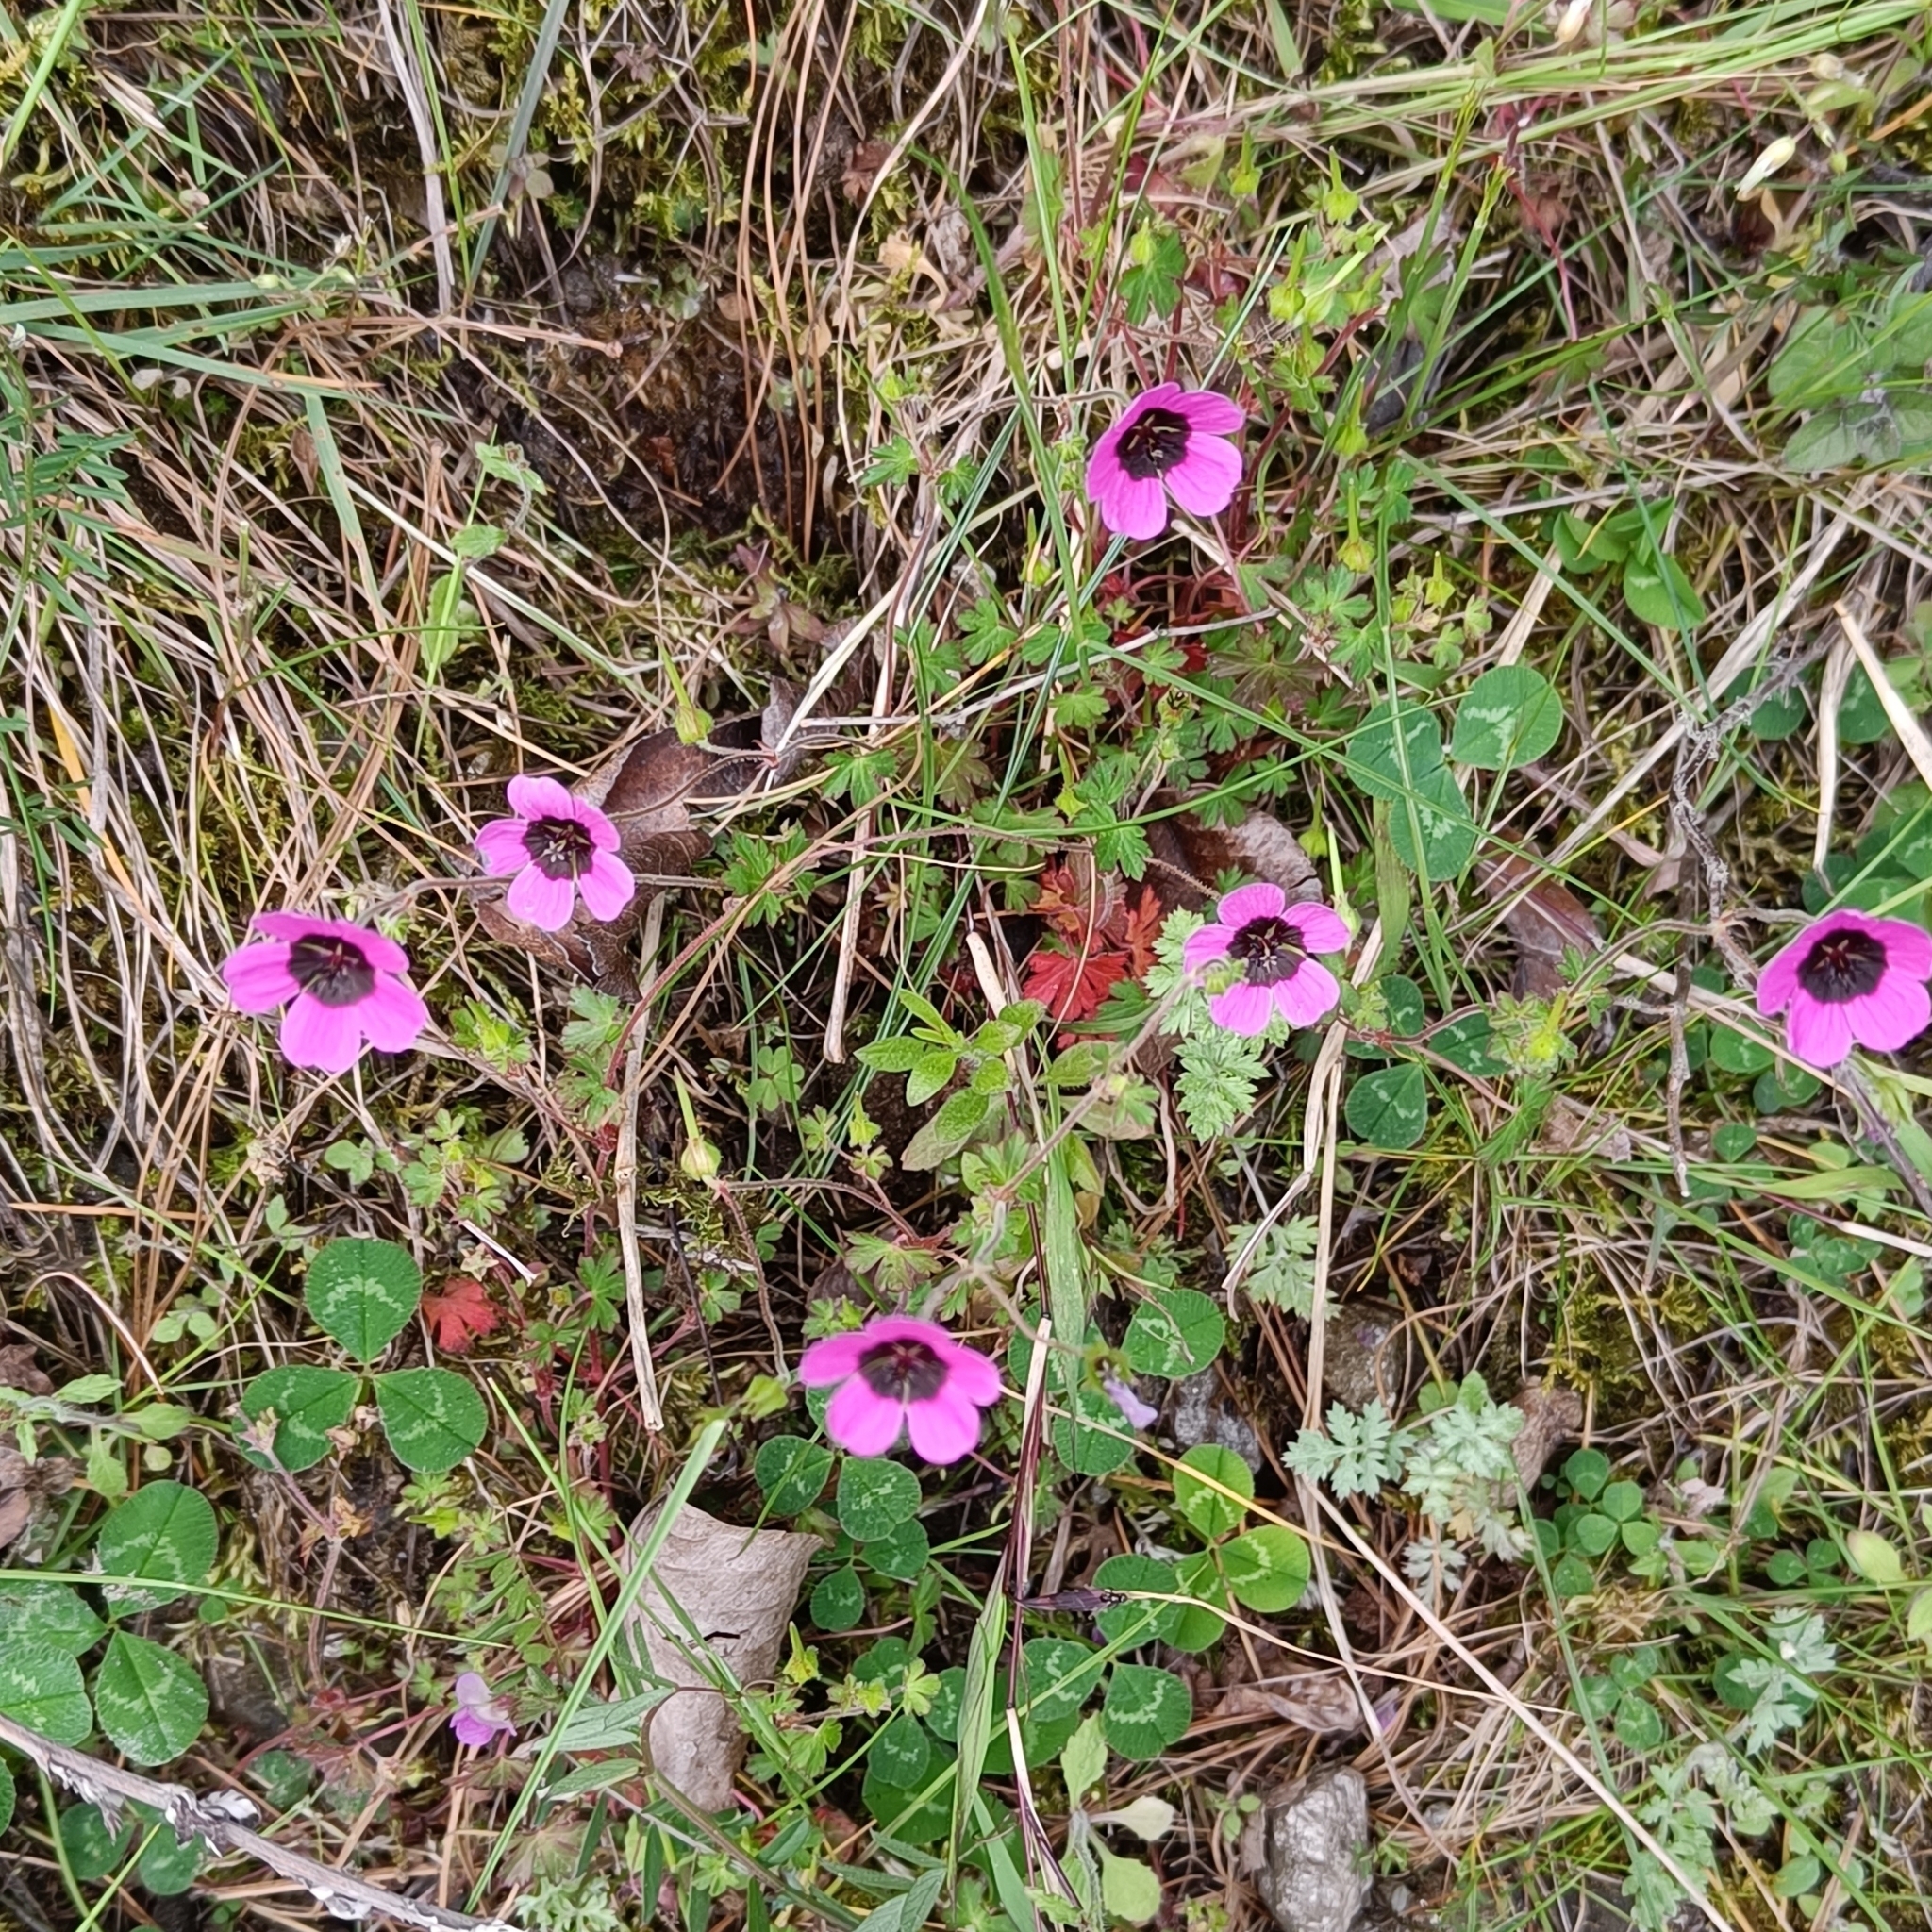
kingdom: Plantae
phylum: Tracheophyta
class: Magnoliopsida
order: Geraniales
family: Geraniaceae
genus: Geranium
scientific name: Geranium ocellatum
